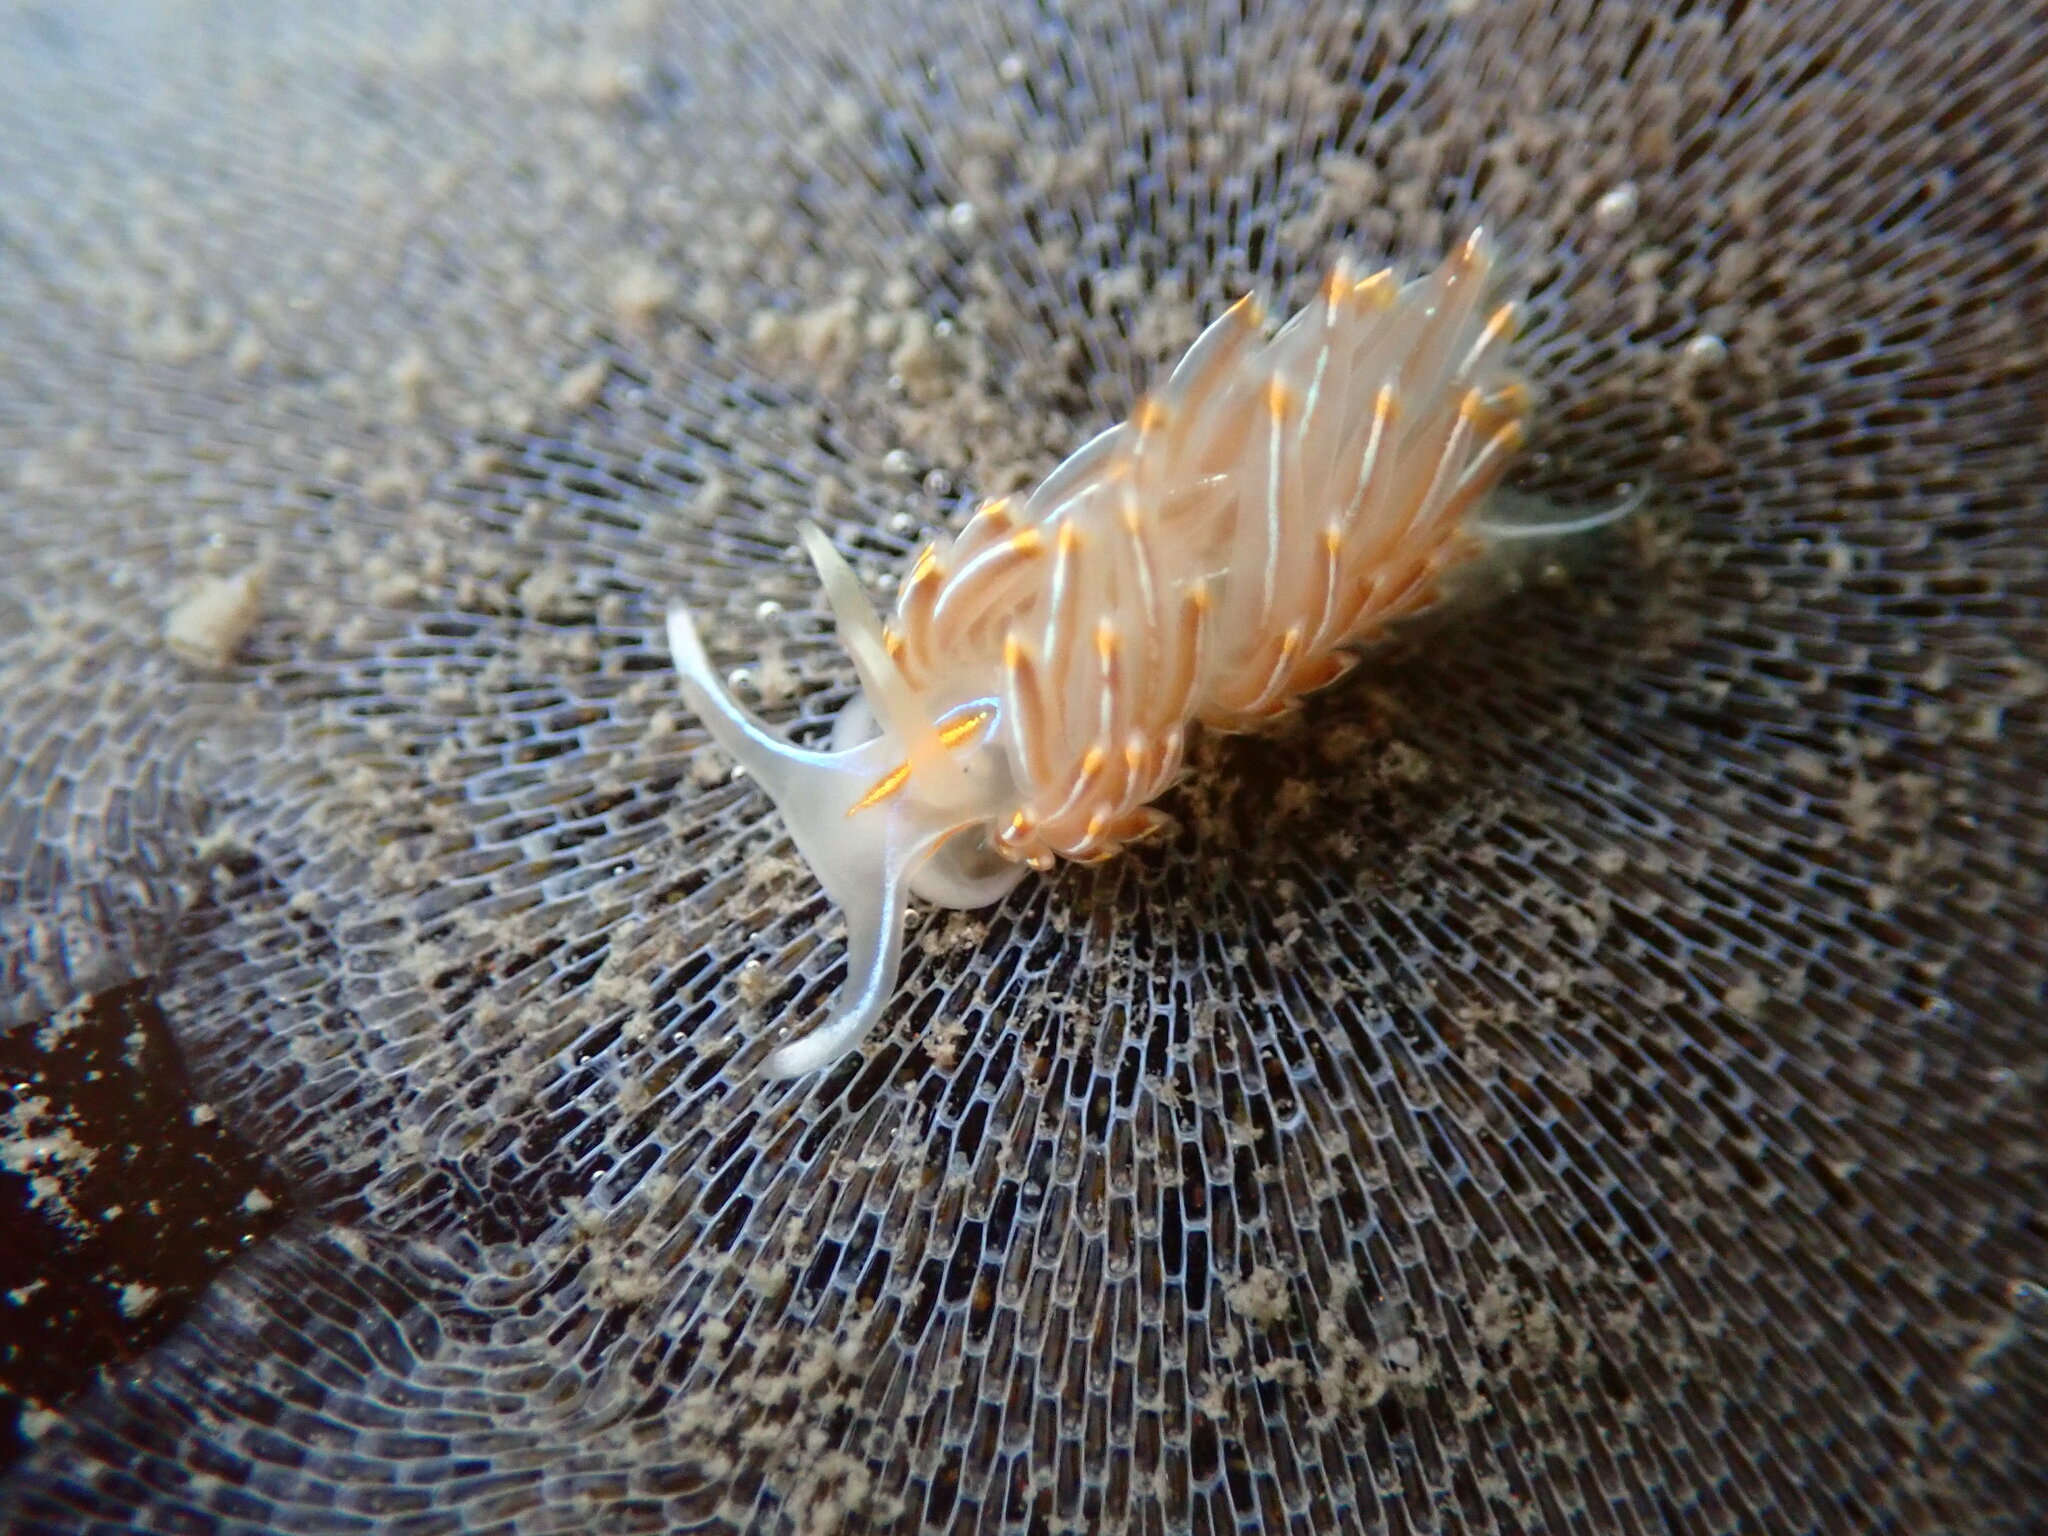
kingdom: Animalia
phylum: Mollusca
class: Gastropoda
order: Nudibranchia
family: Myrrhinidae
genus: Hermissenda
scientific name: Hermissenda crassicornis
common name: Hermissenda
